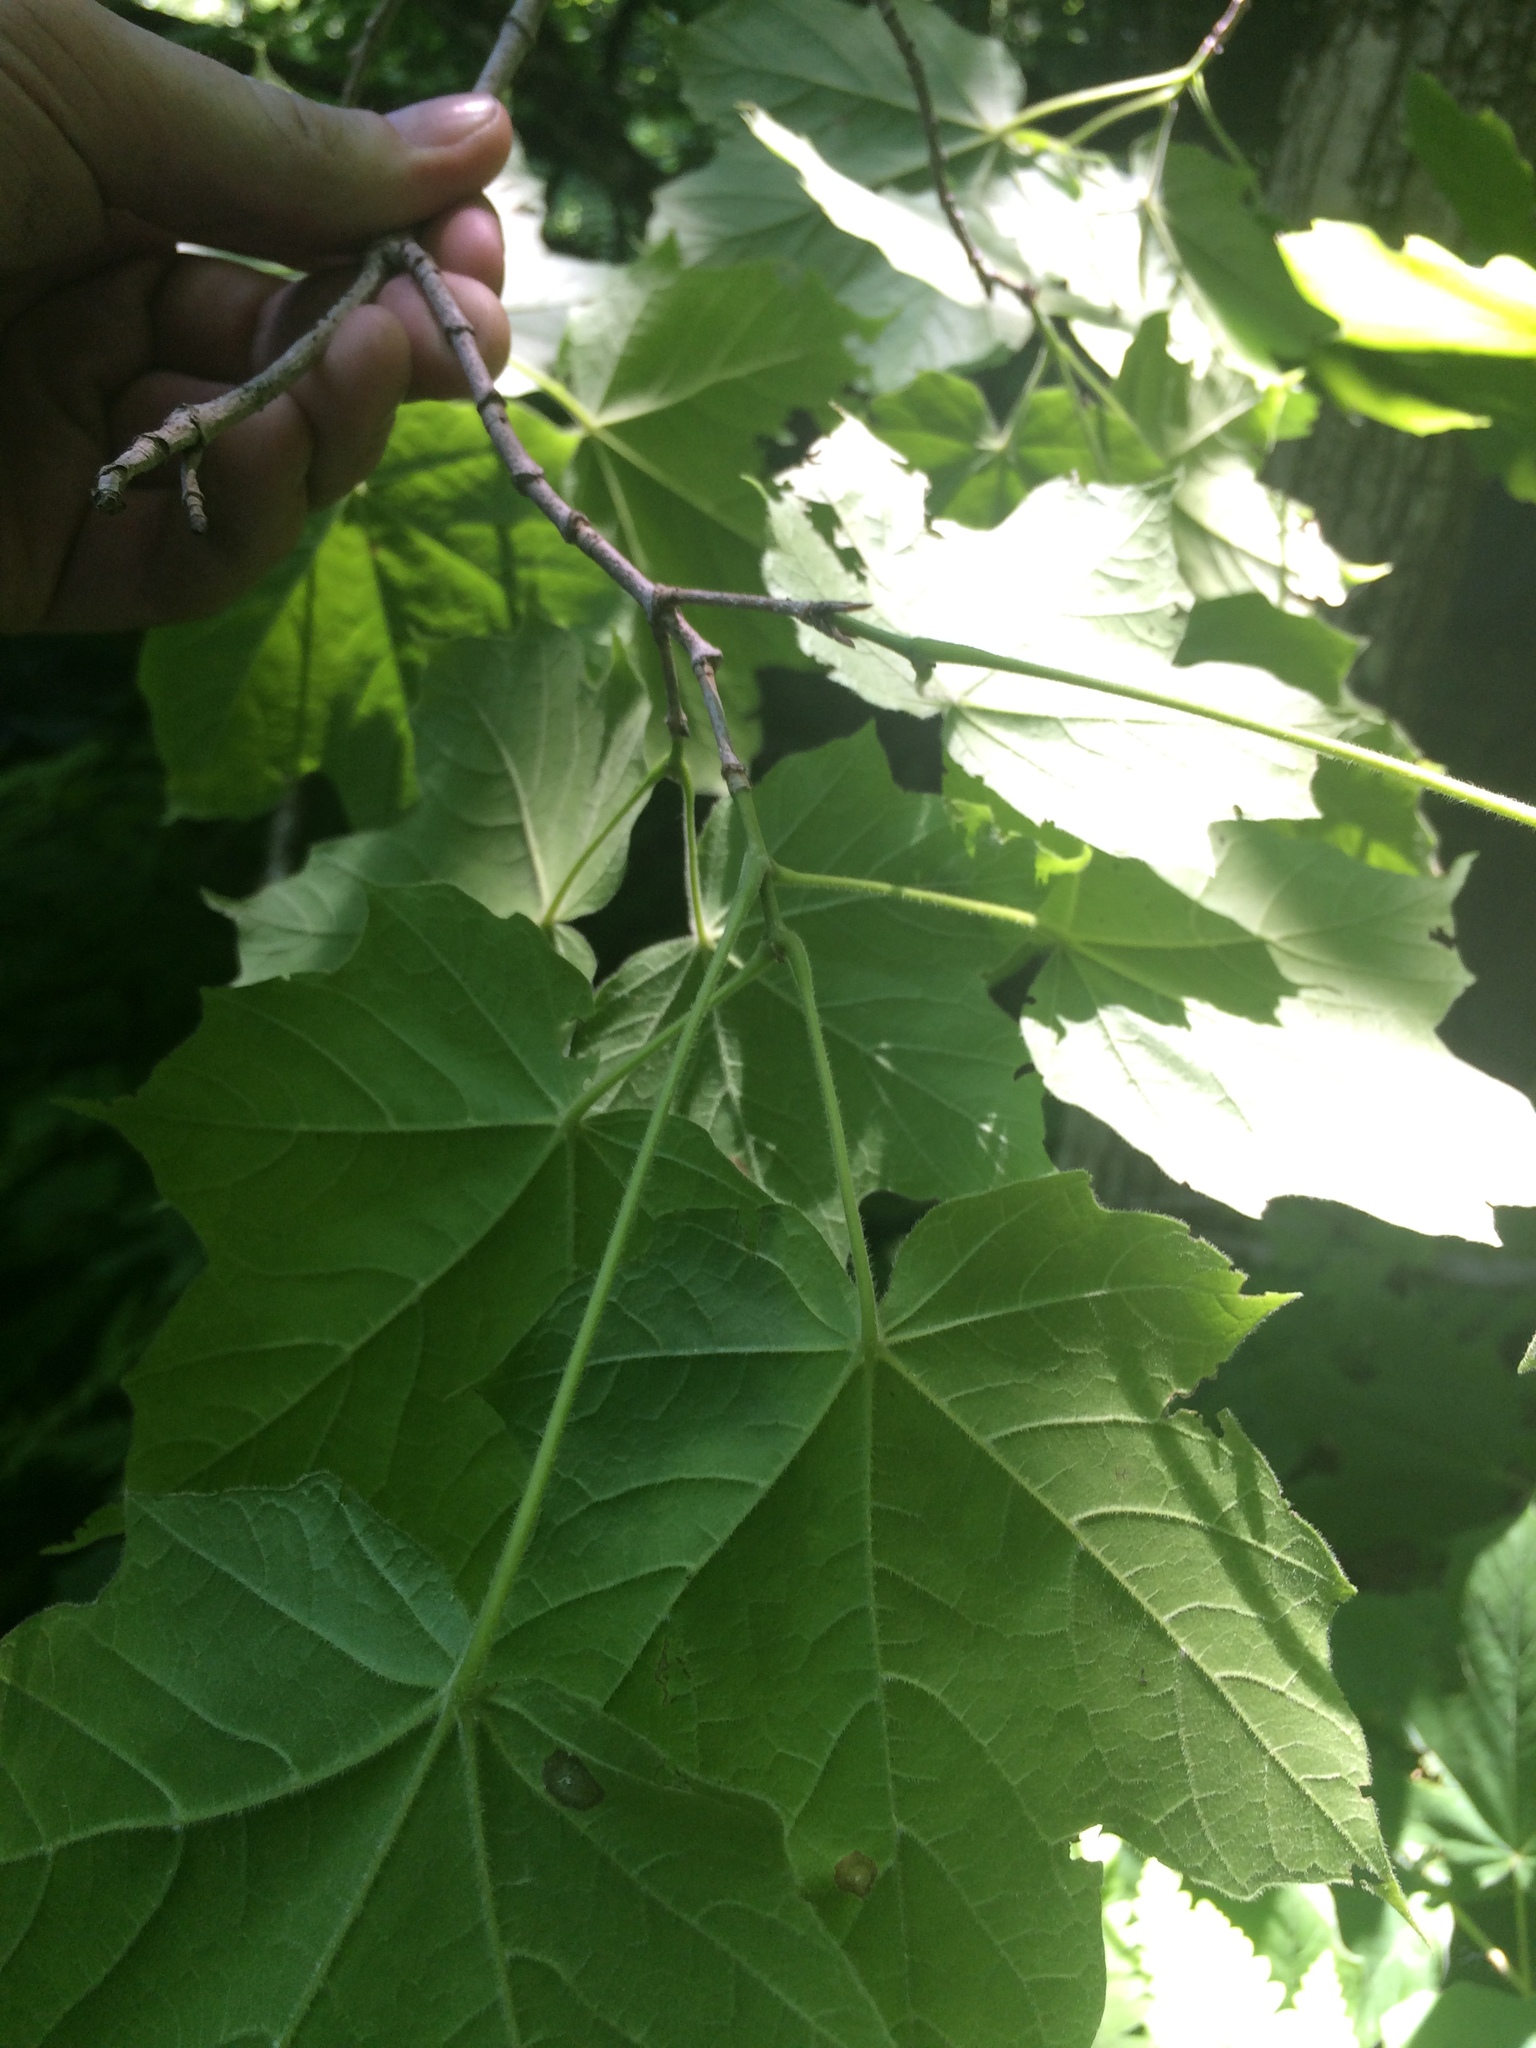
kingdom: Plantae
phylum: Tracheophyta
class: Magnoliopsida
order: Sapindales
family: Sapindaceae
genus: Acer
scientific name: Acer nigrum
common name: Black maple
